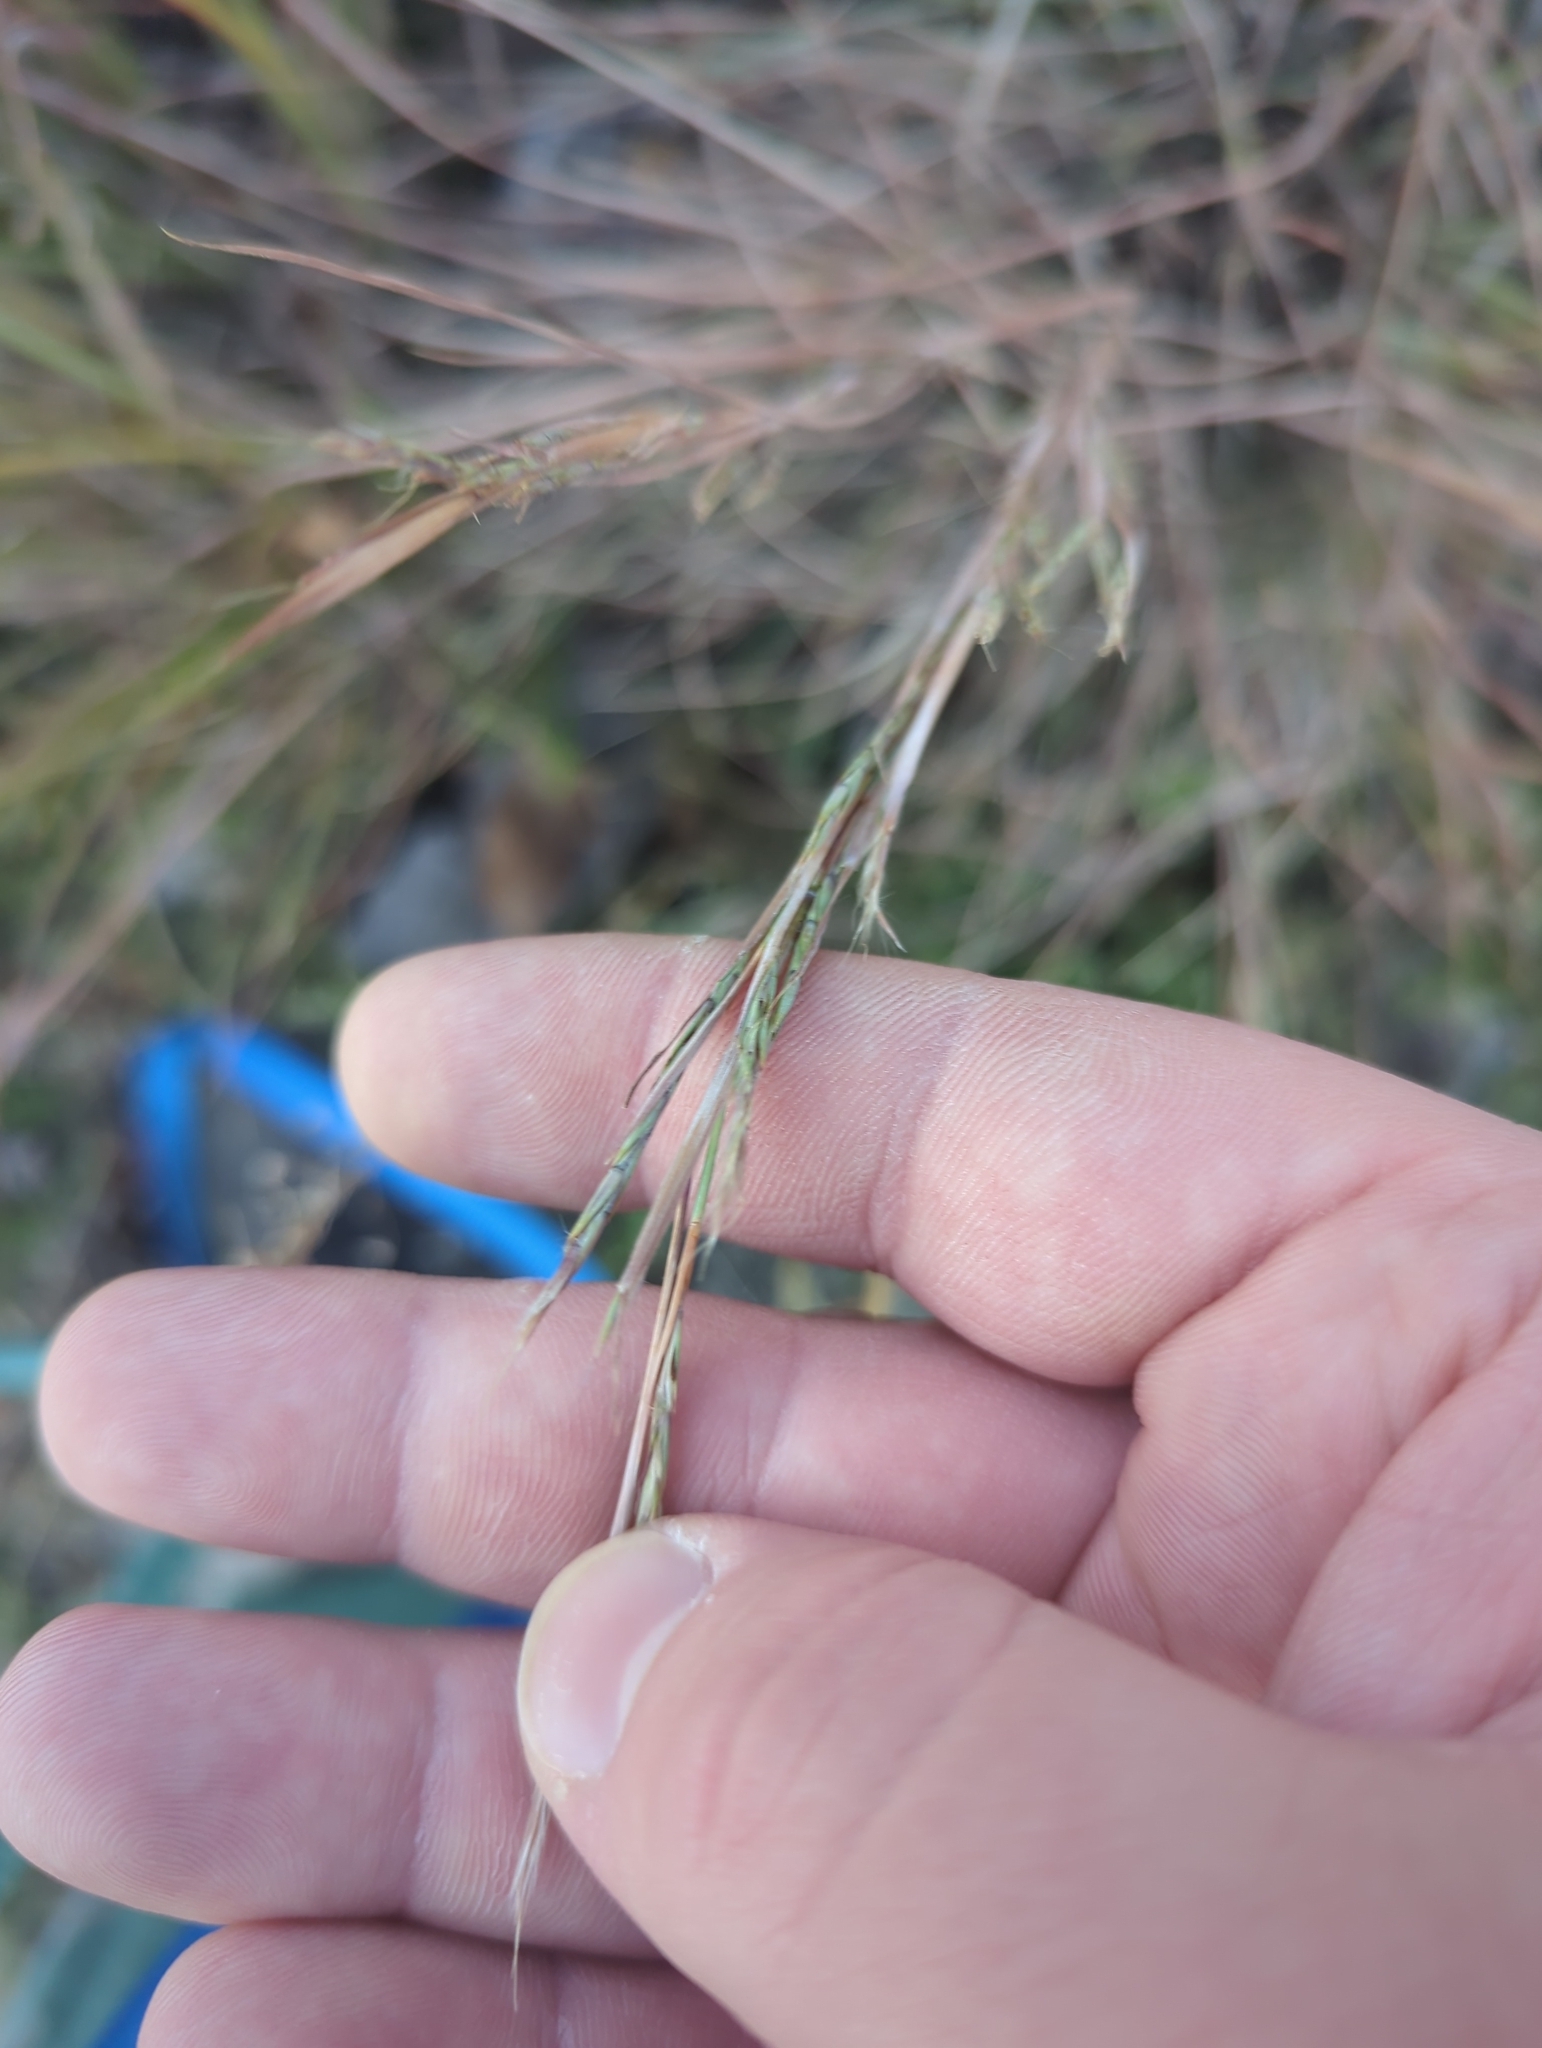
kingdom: Plantae
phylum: Tracheophyta
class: Liliopsida
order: Poales
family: Poaceae
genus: Schizachyrium
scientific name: Schizachyrium scoparium
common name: Little bluestem
